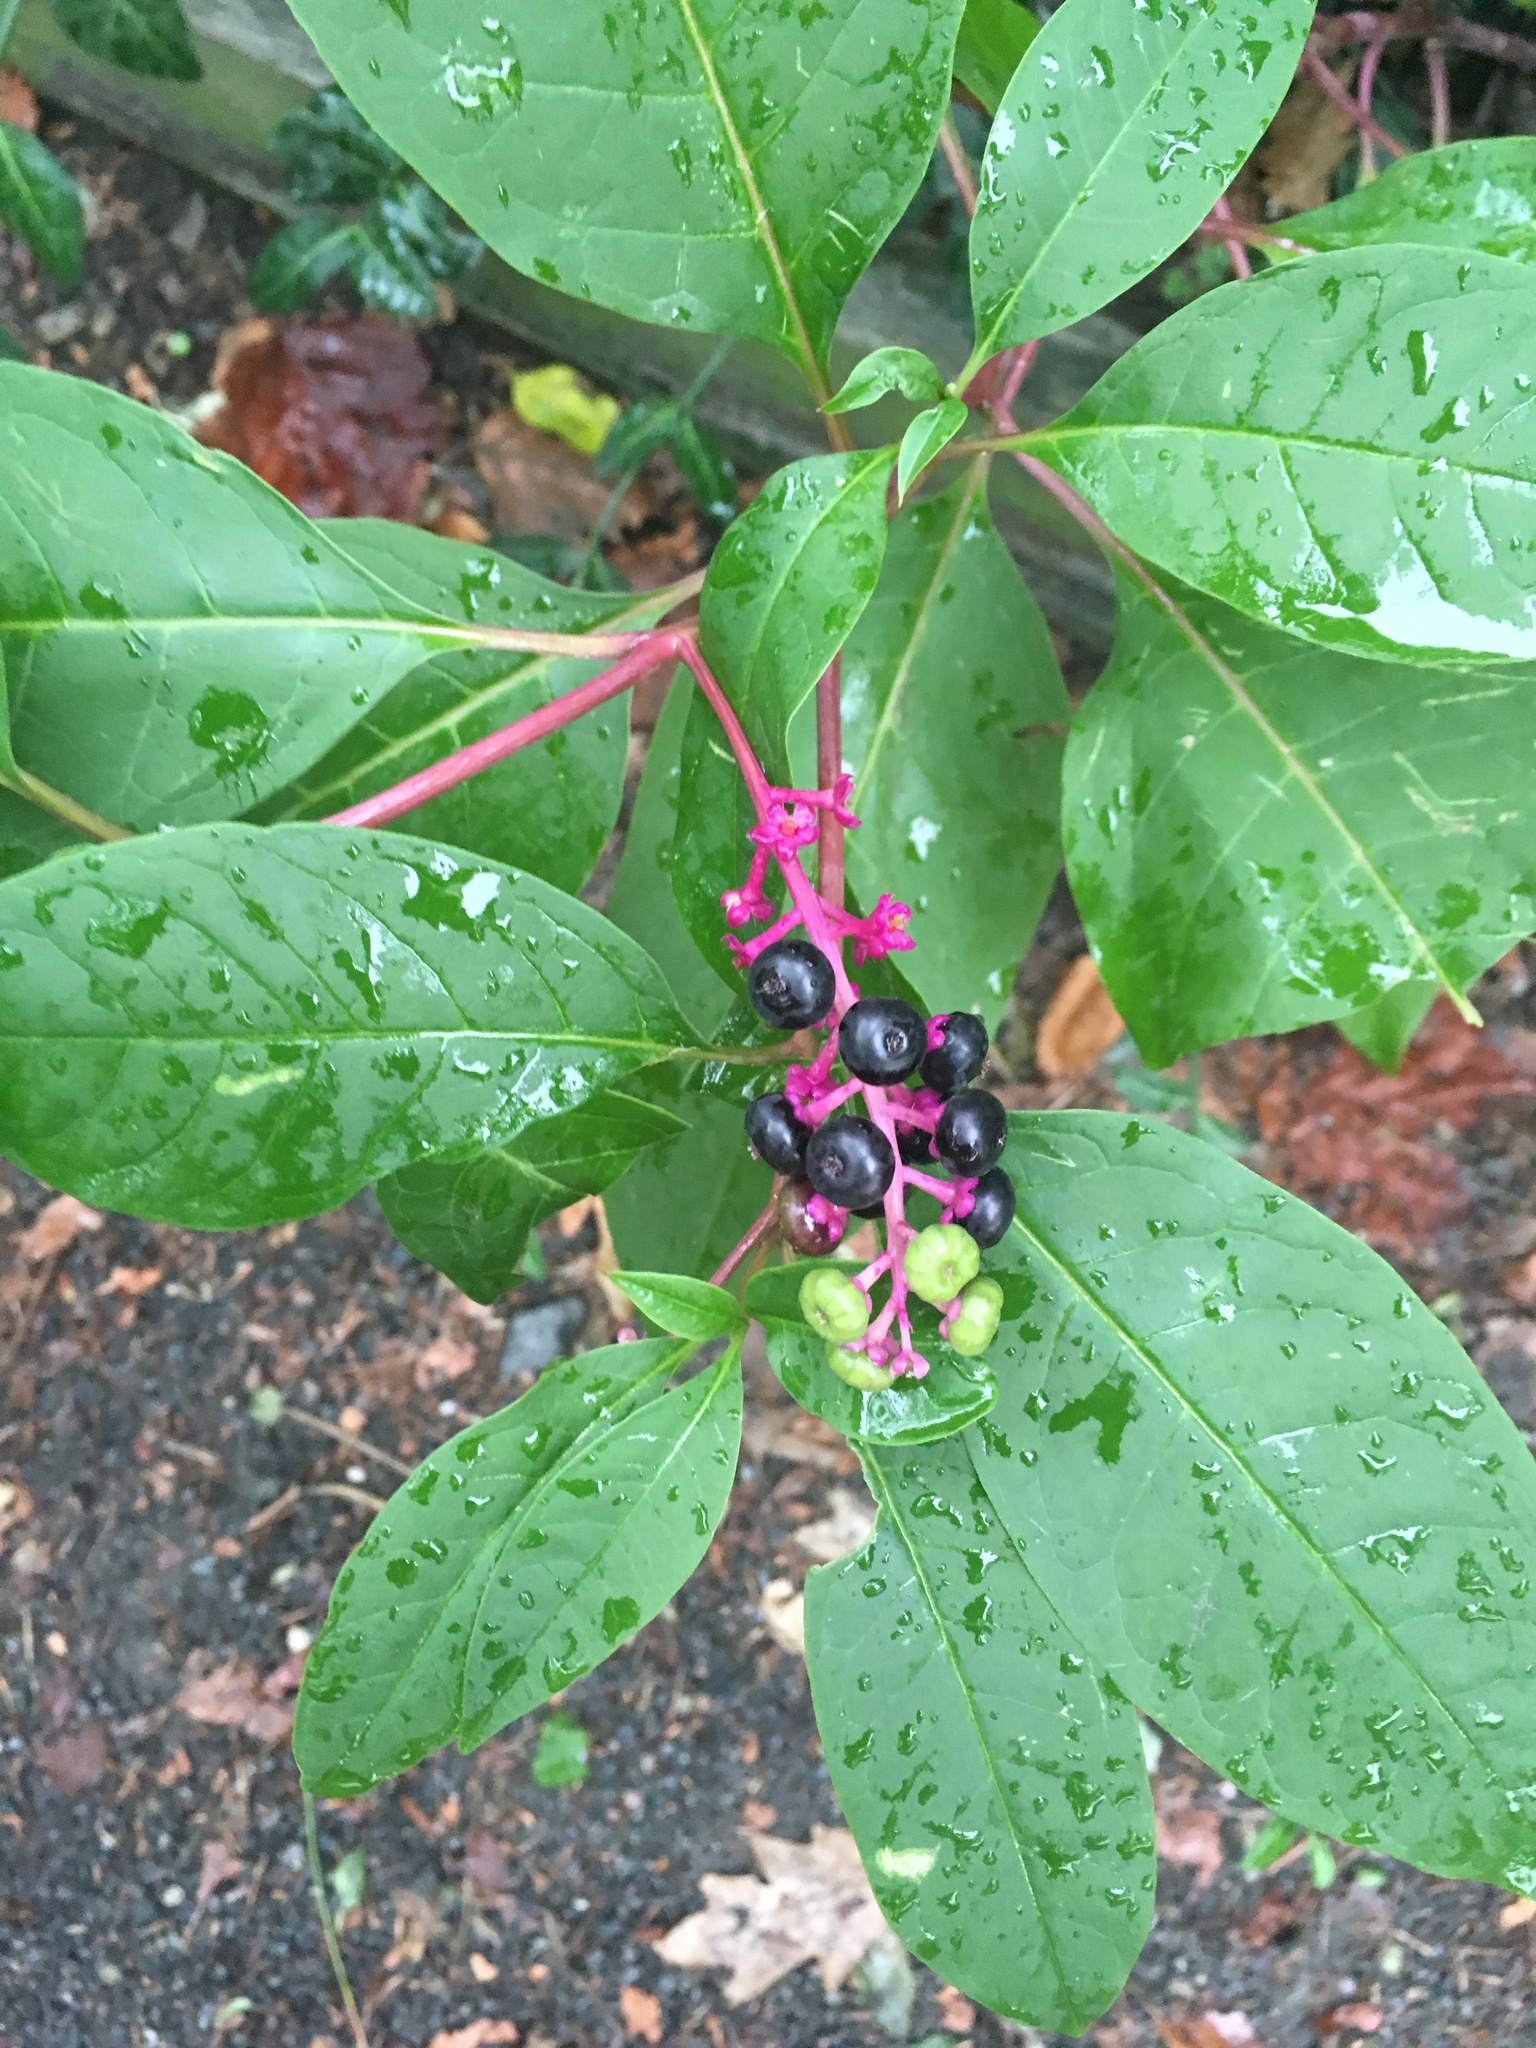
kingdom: Plantae
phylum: Tracheophyta
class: Magnoliopsida
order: Caryophyllales
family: Phytolaccaceae
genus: Phytolacca
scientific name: Phytolacca americana
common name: American pokeweed
